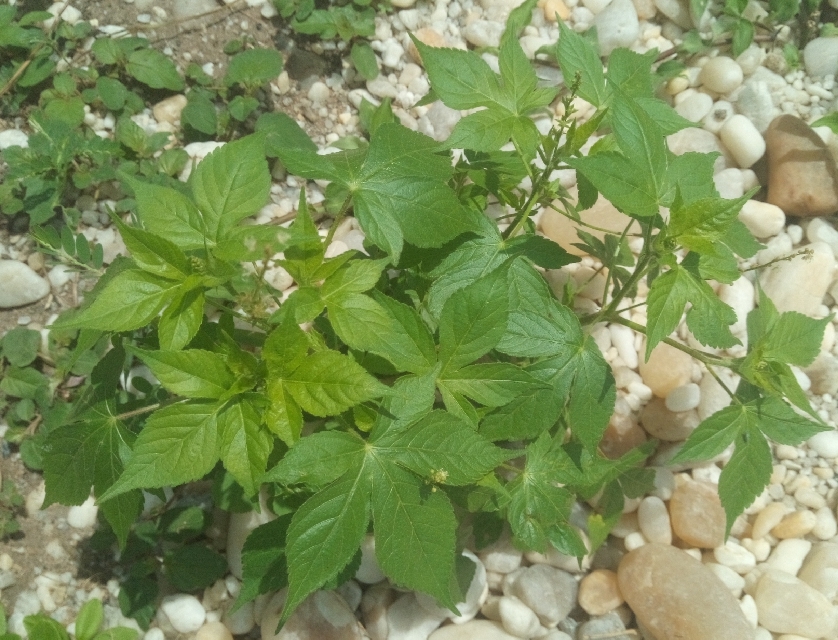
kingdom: Plantae
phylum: Tracheophyta
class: Magnoliopsida
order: Malpighiales
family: Euphorbiaceae
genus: Astraea
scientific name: Astraea lobata
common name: Lobed croton
